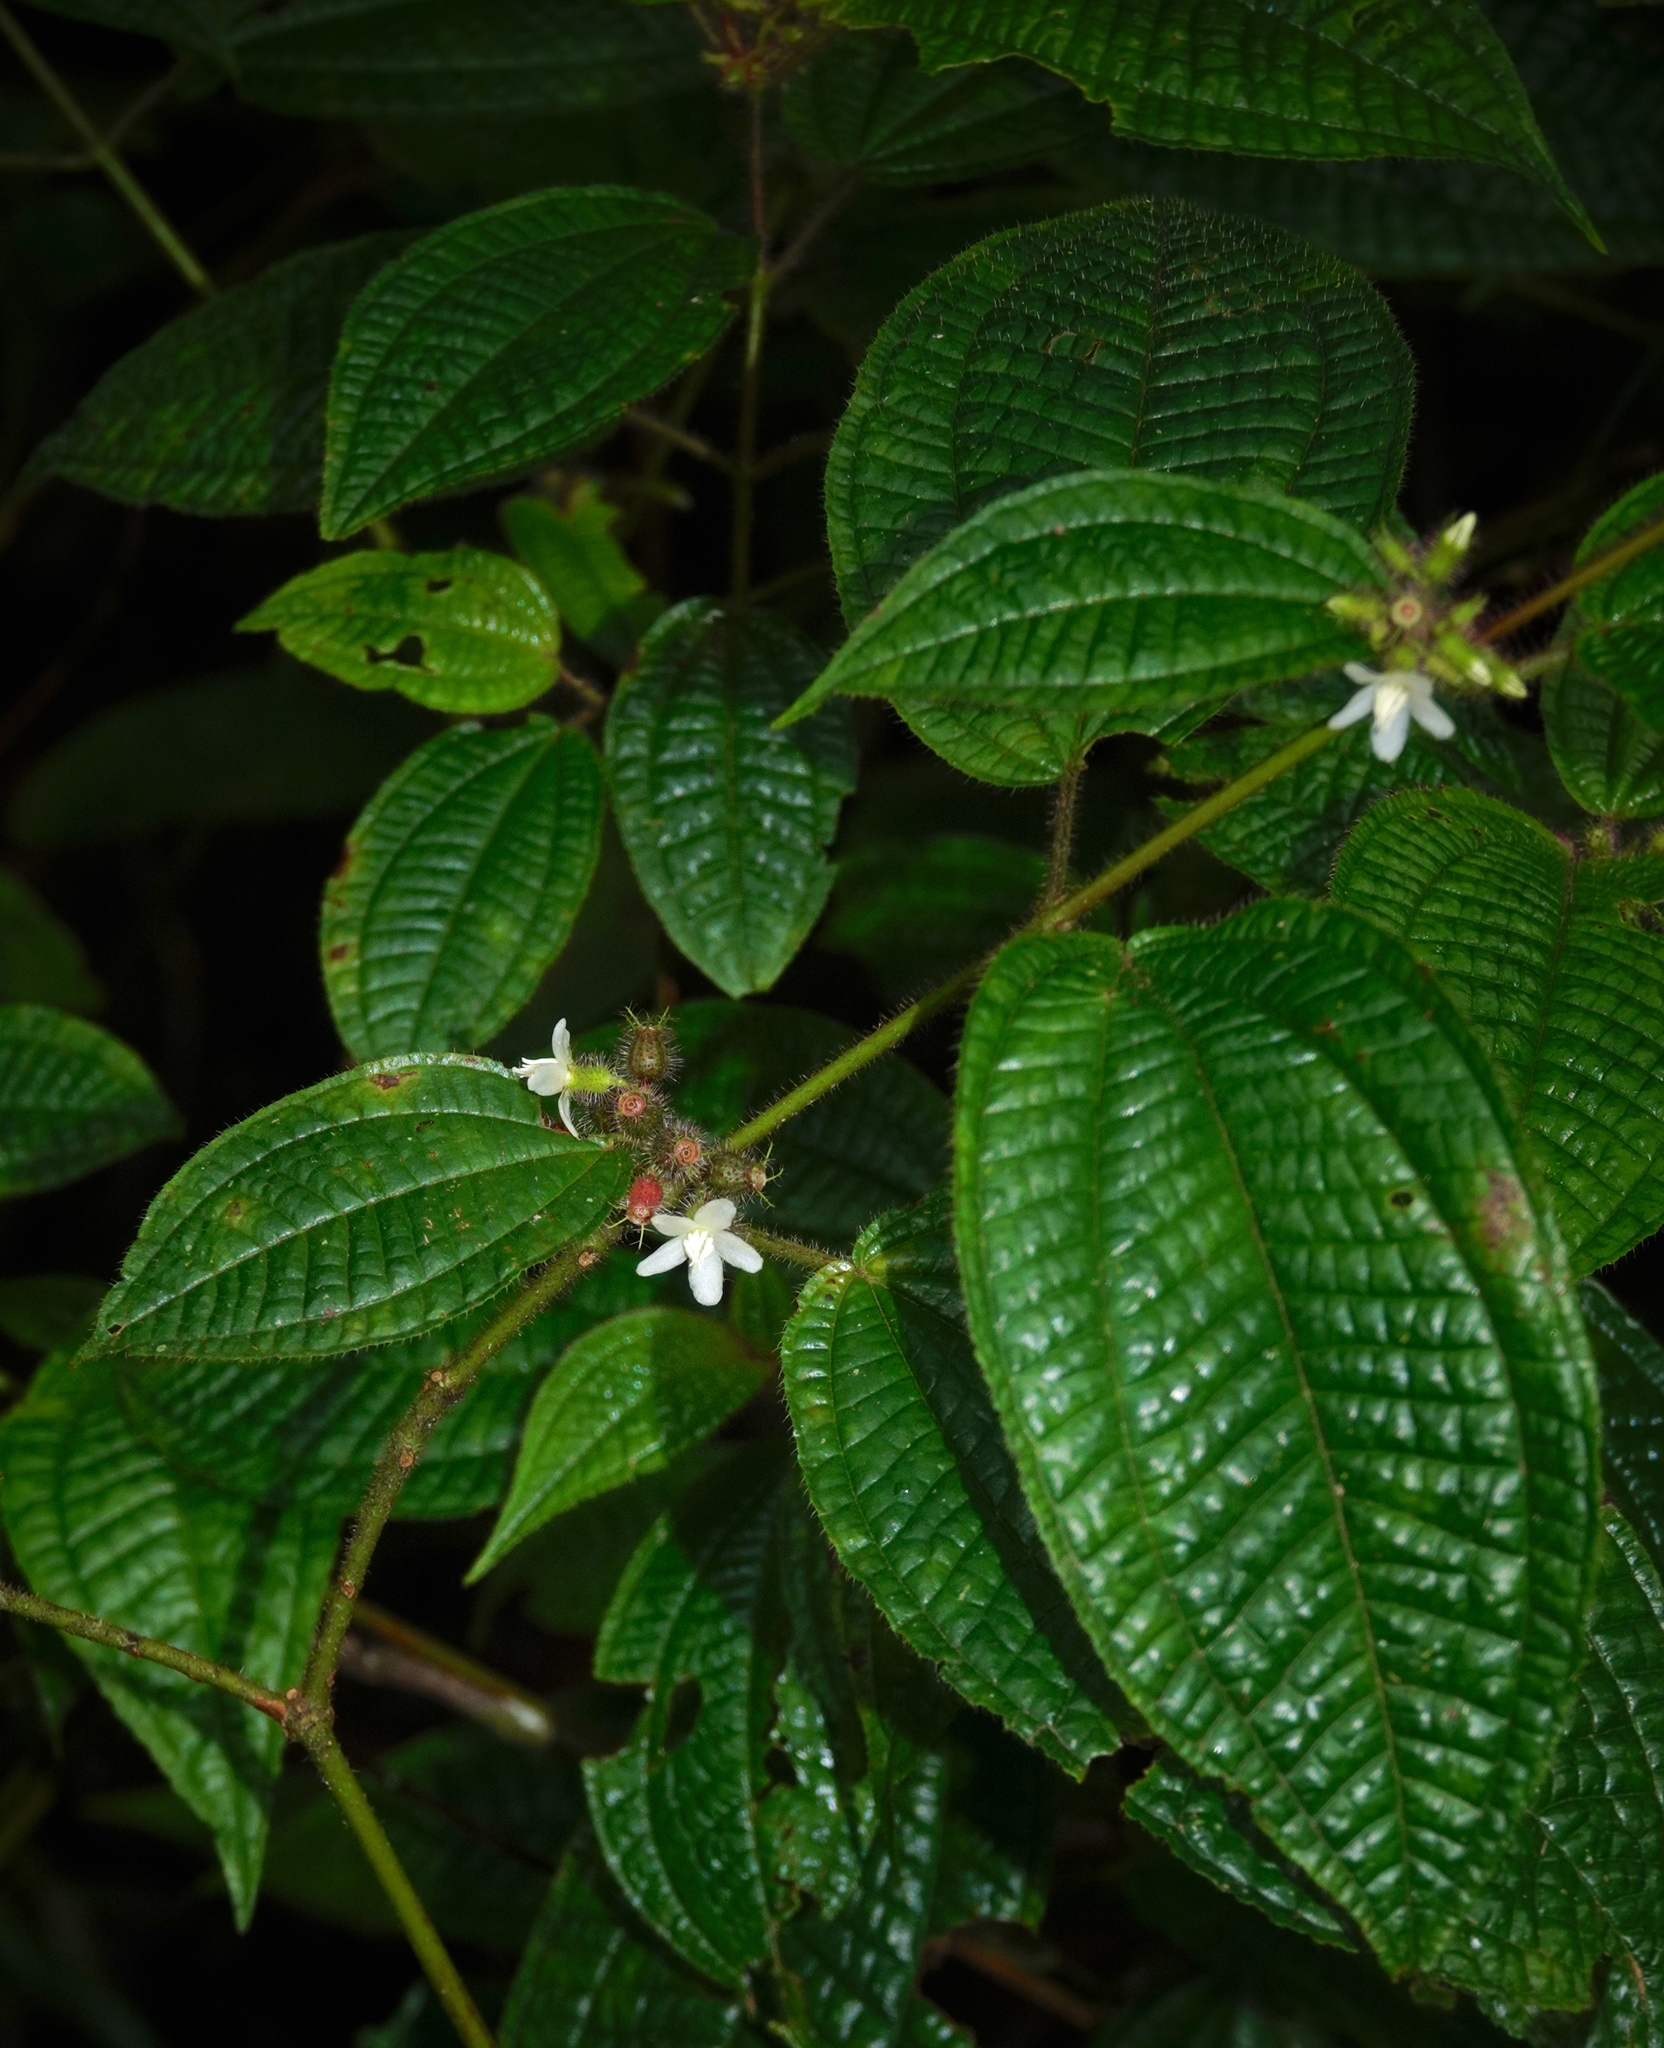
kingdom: Plantae
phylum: Tracheophyta
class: Magnoliopsida
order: Myrtales
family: Melastomataceae
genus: Miconia
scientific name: Miconia crenata
